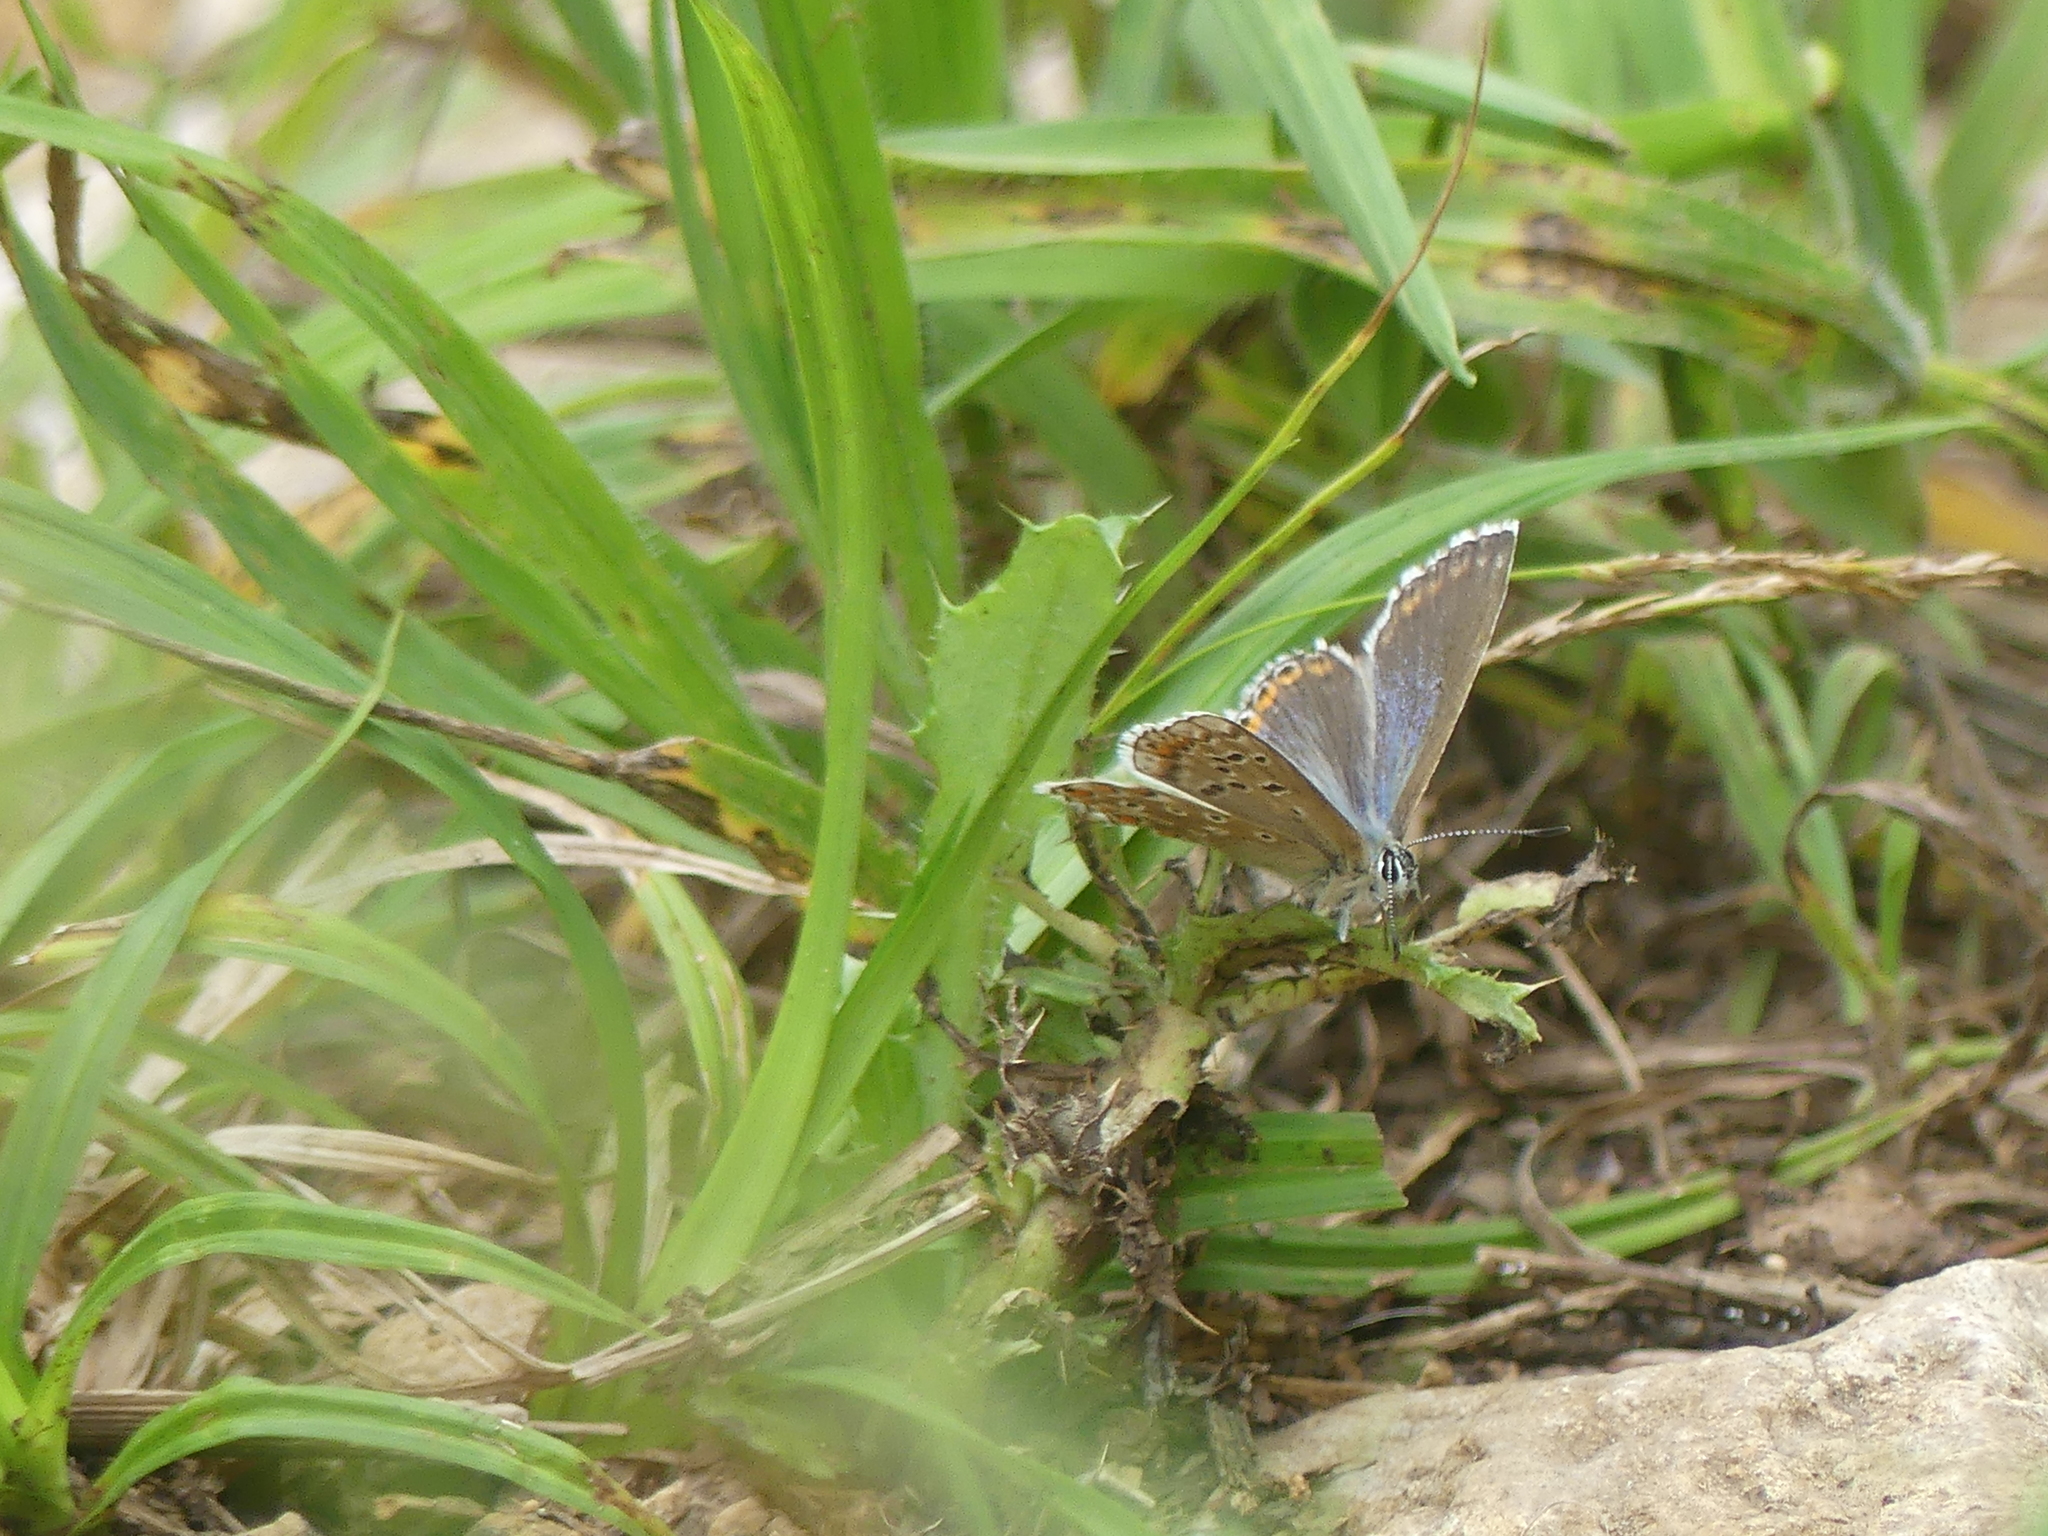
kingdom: Animalia
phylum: Arthropoda
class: Insecta
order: Lepidoptera
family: Lycaenidae
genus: Lysandra
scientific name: Lysandra bellargus
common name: Adonis blue
